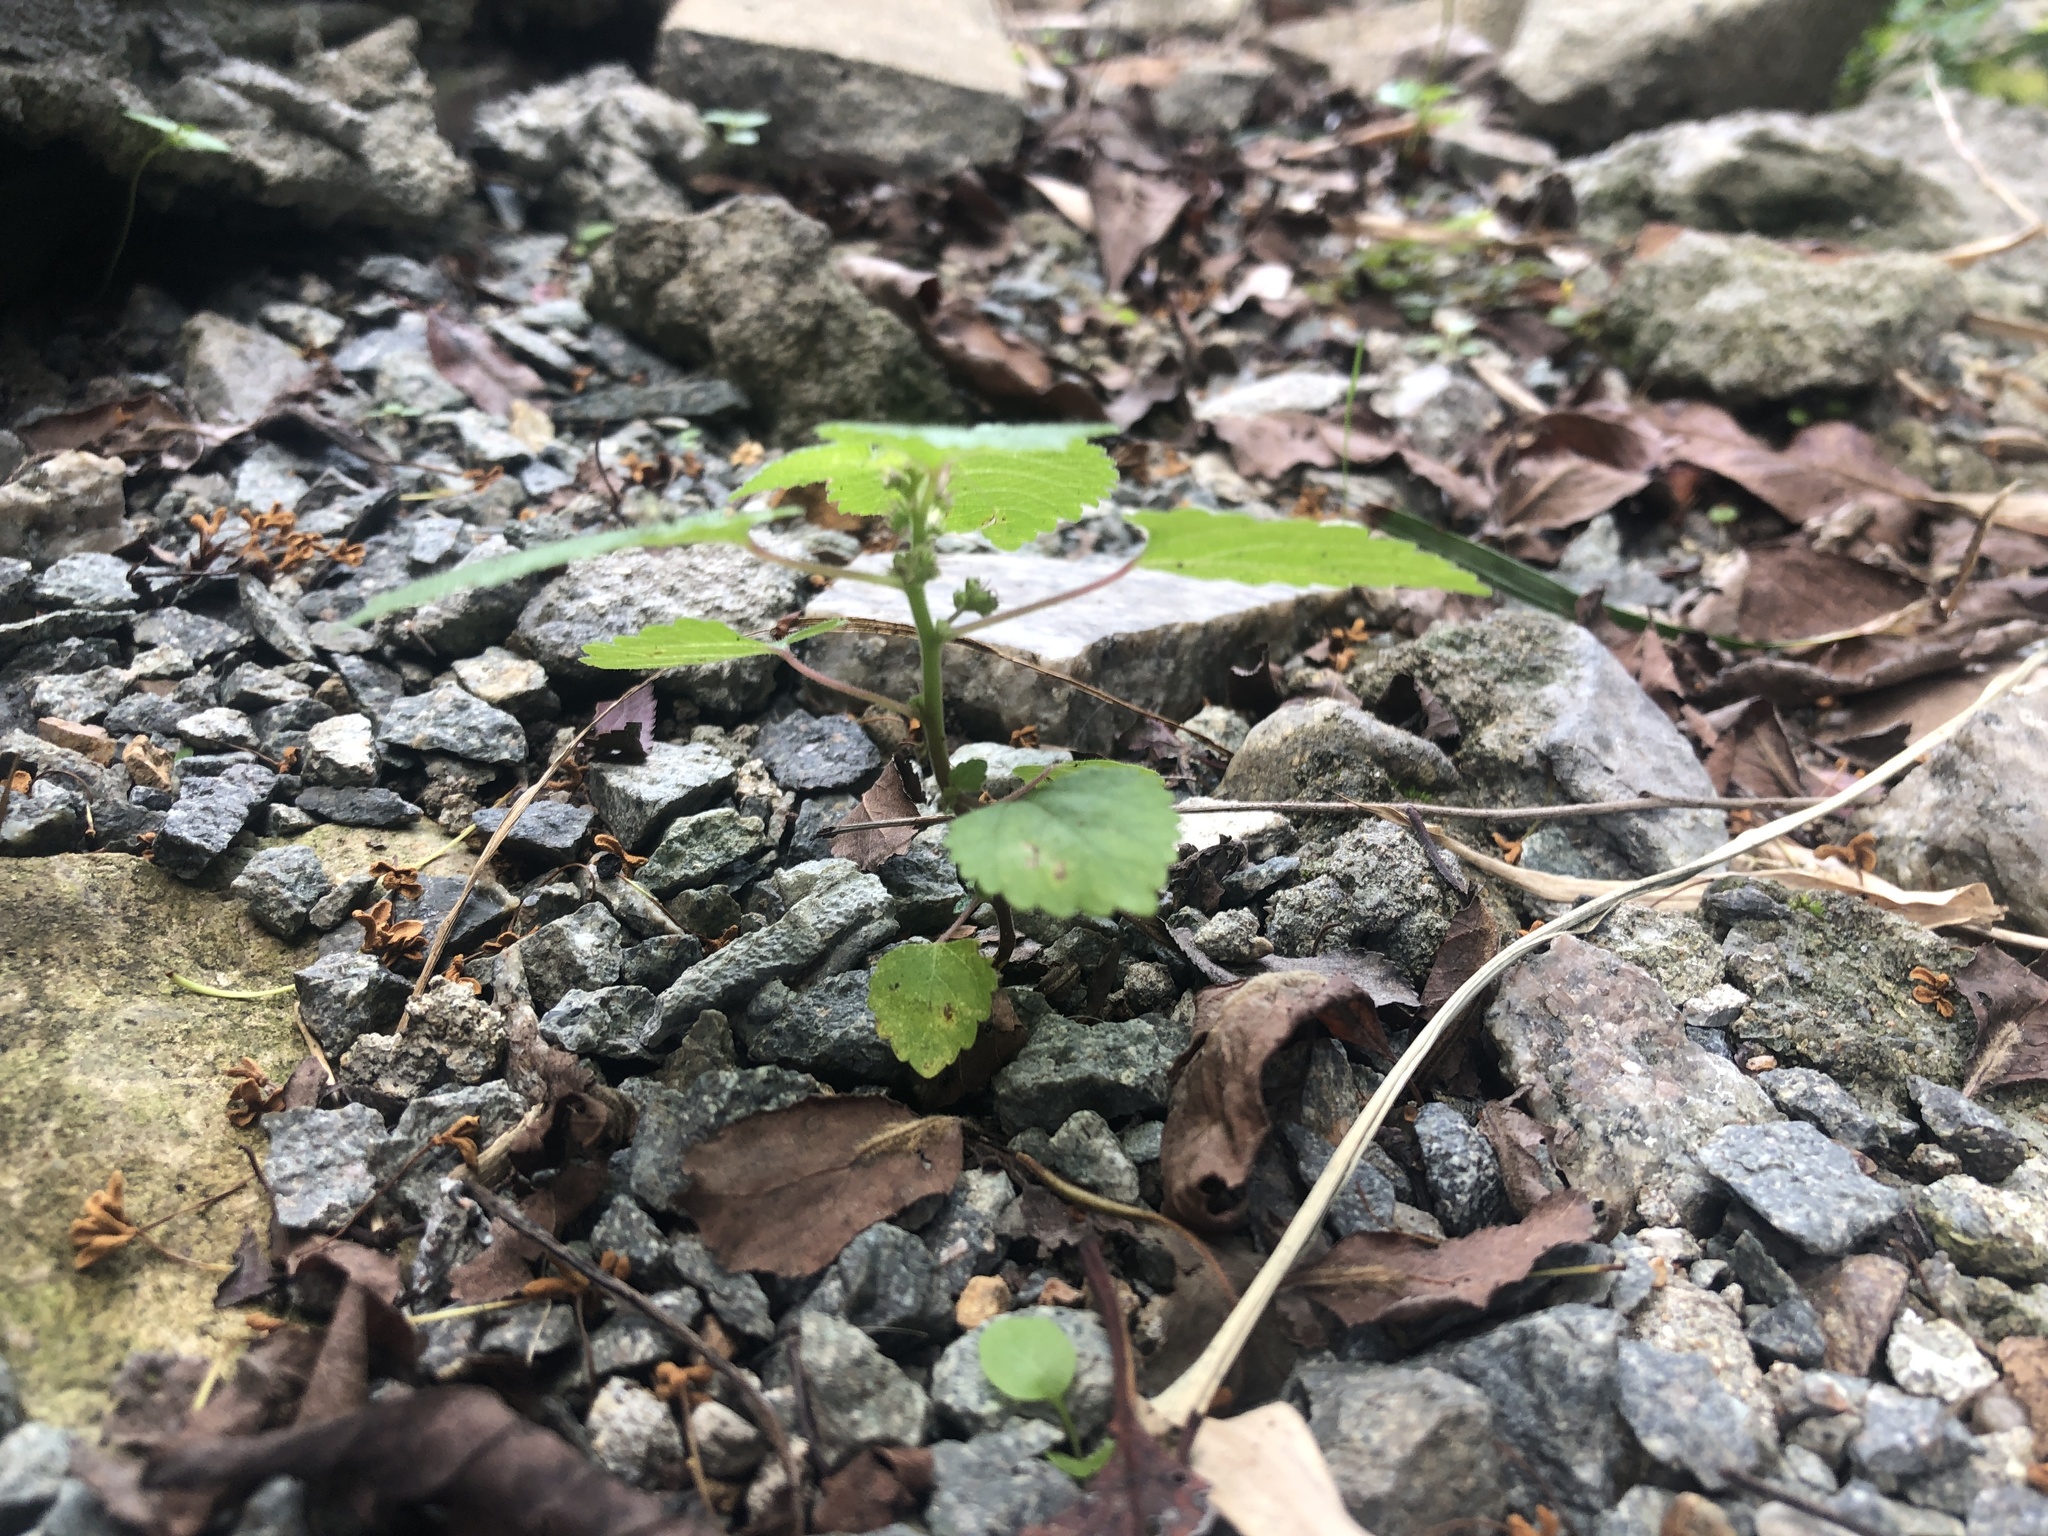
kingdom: Plantae
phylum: Tracheophyta
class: Magnoliopsida
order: Rosales
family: Moraceae
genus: Fatoua
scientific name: Fatoua villosa
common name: Hairy crabweed
